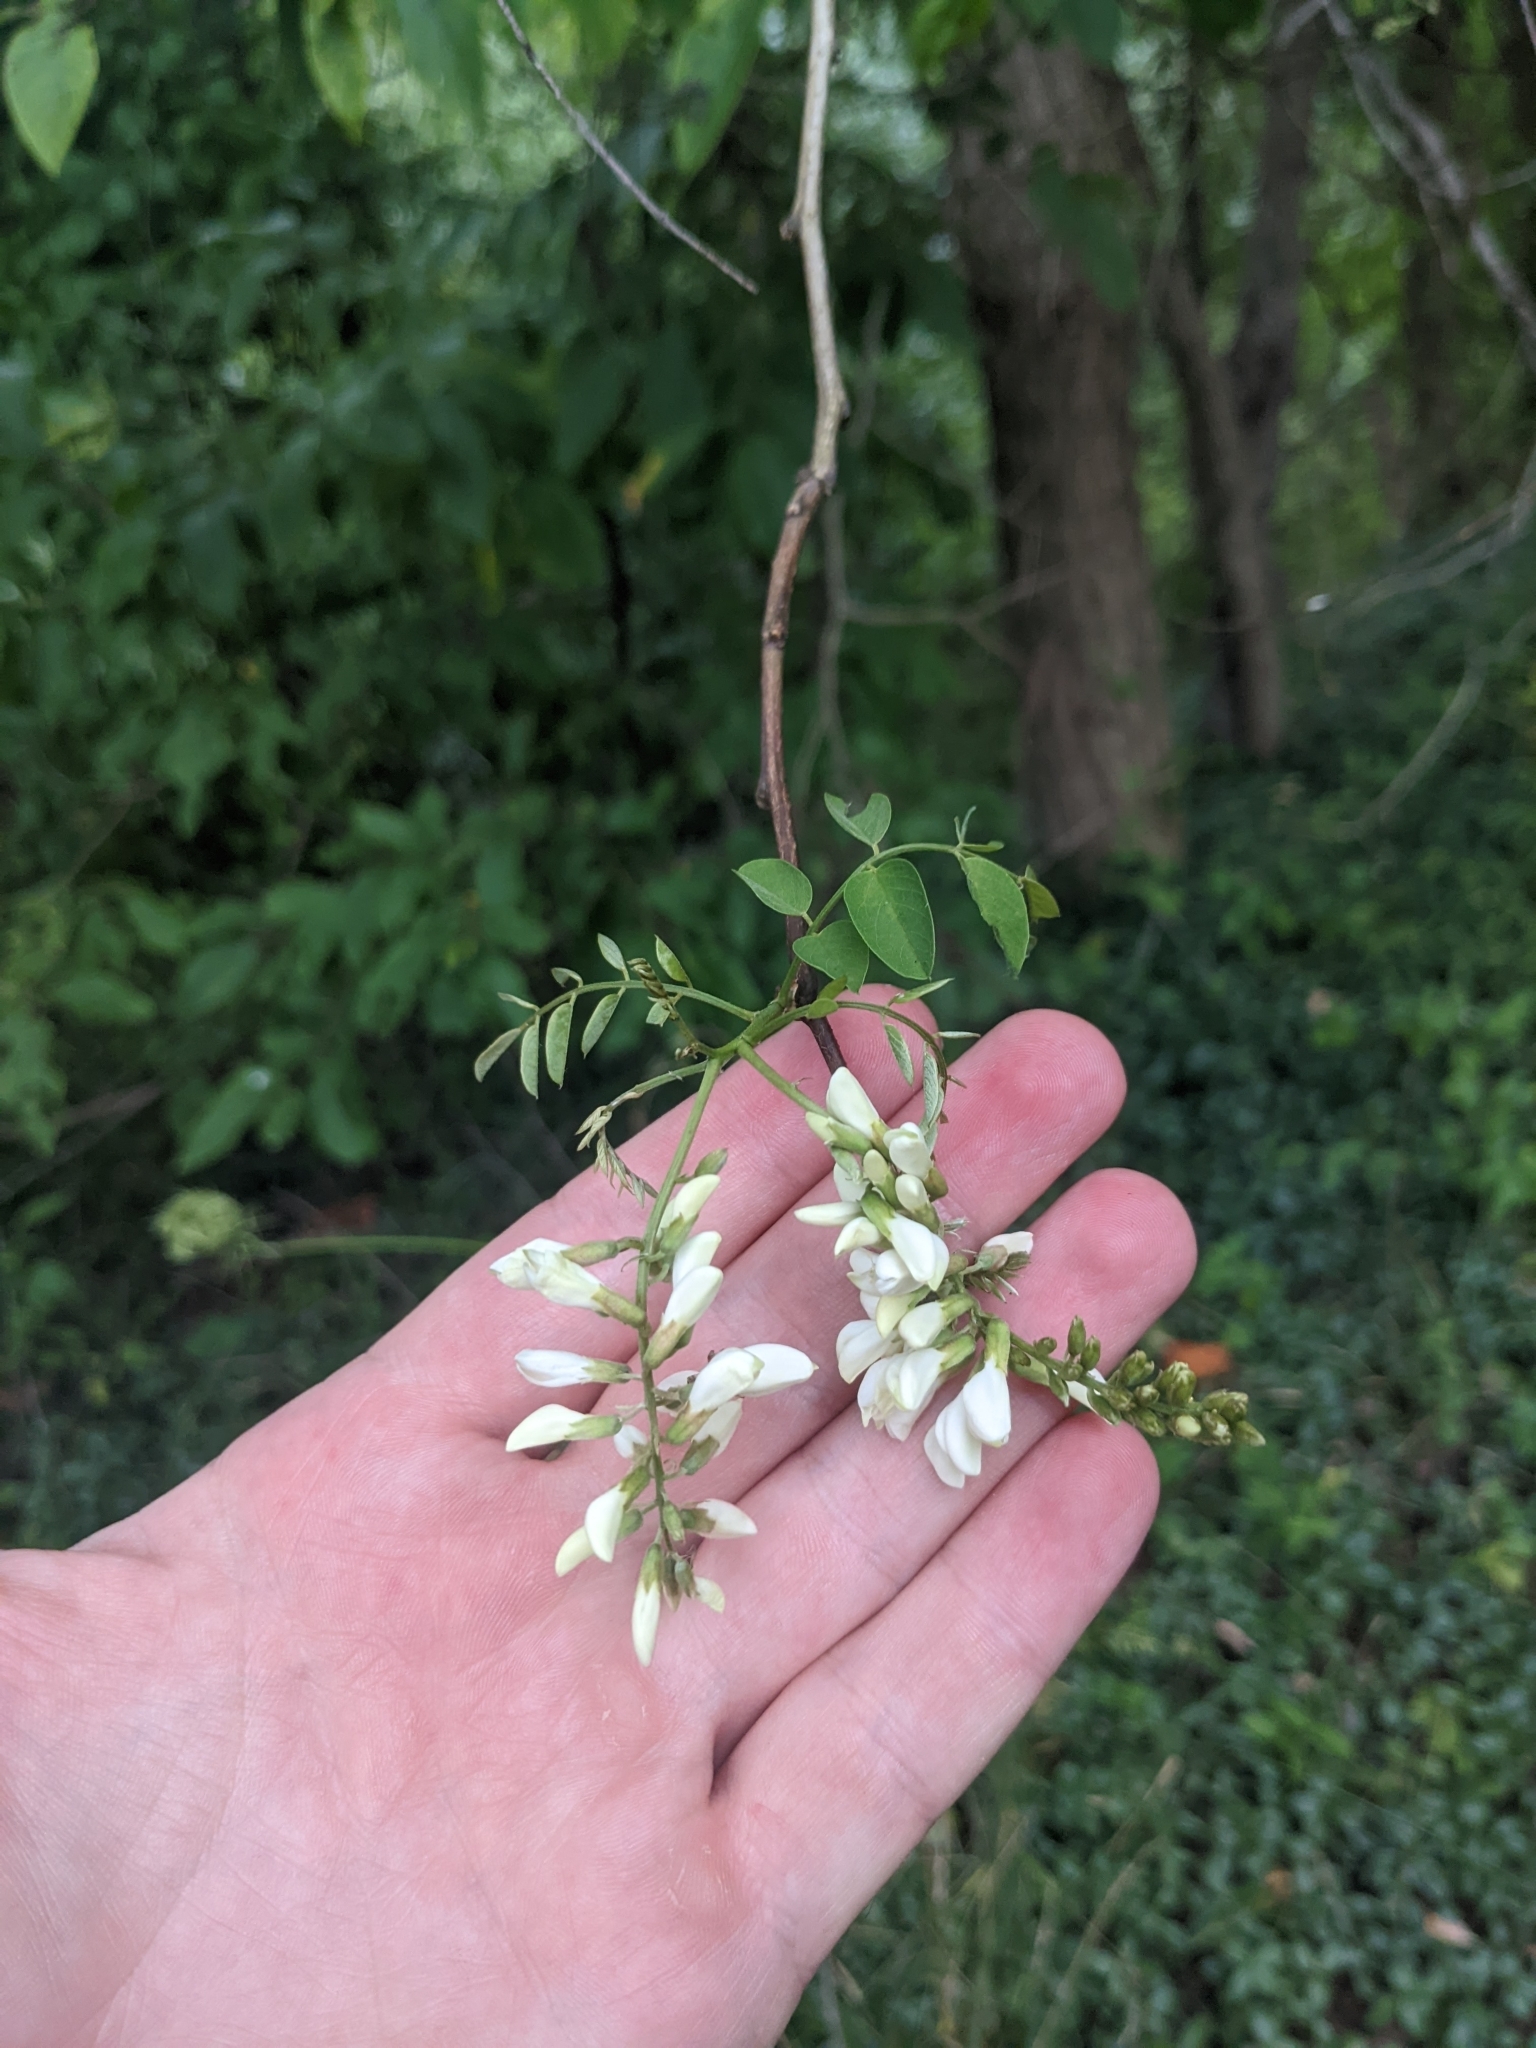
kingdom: Plantae
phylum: Tracheophyta
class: Magnoliopsida
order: Fabales
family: Fabaceae
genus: Robinia
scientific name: Robinia pseudoacacia
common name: Black locust
